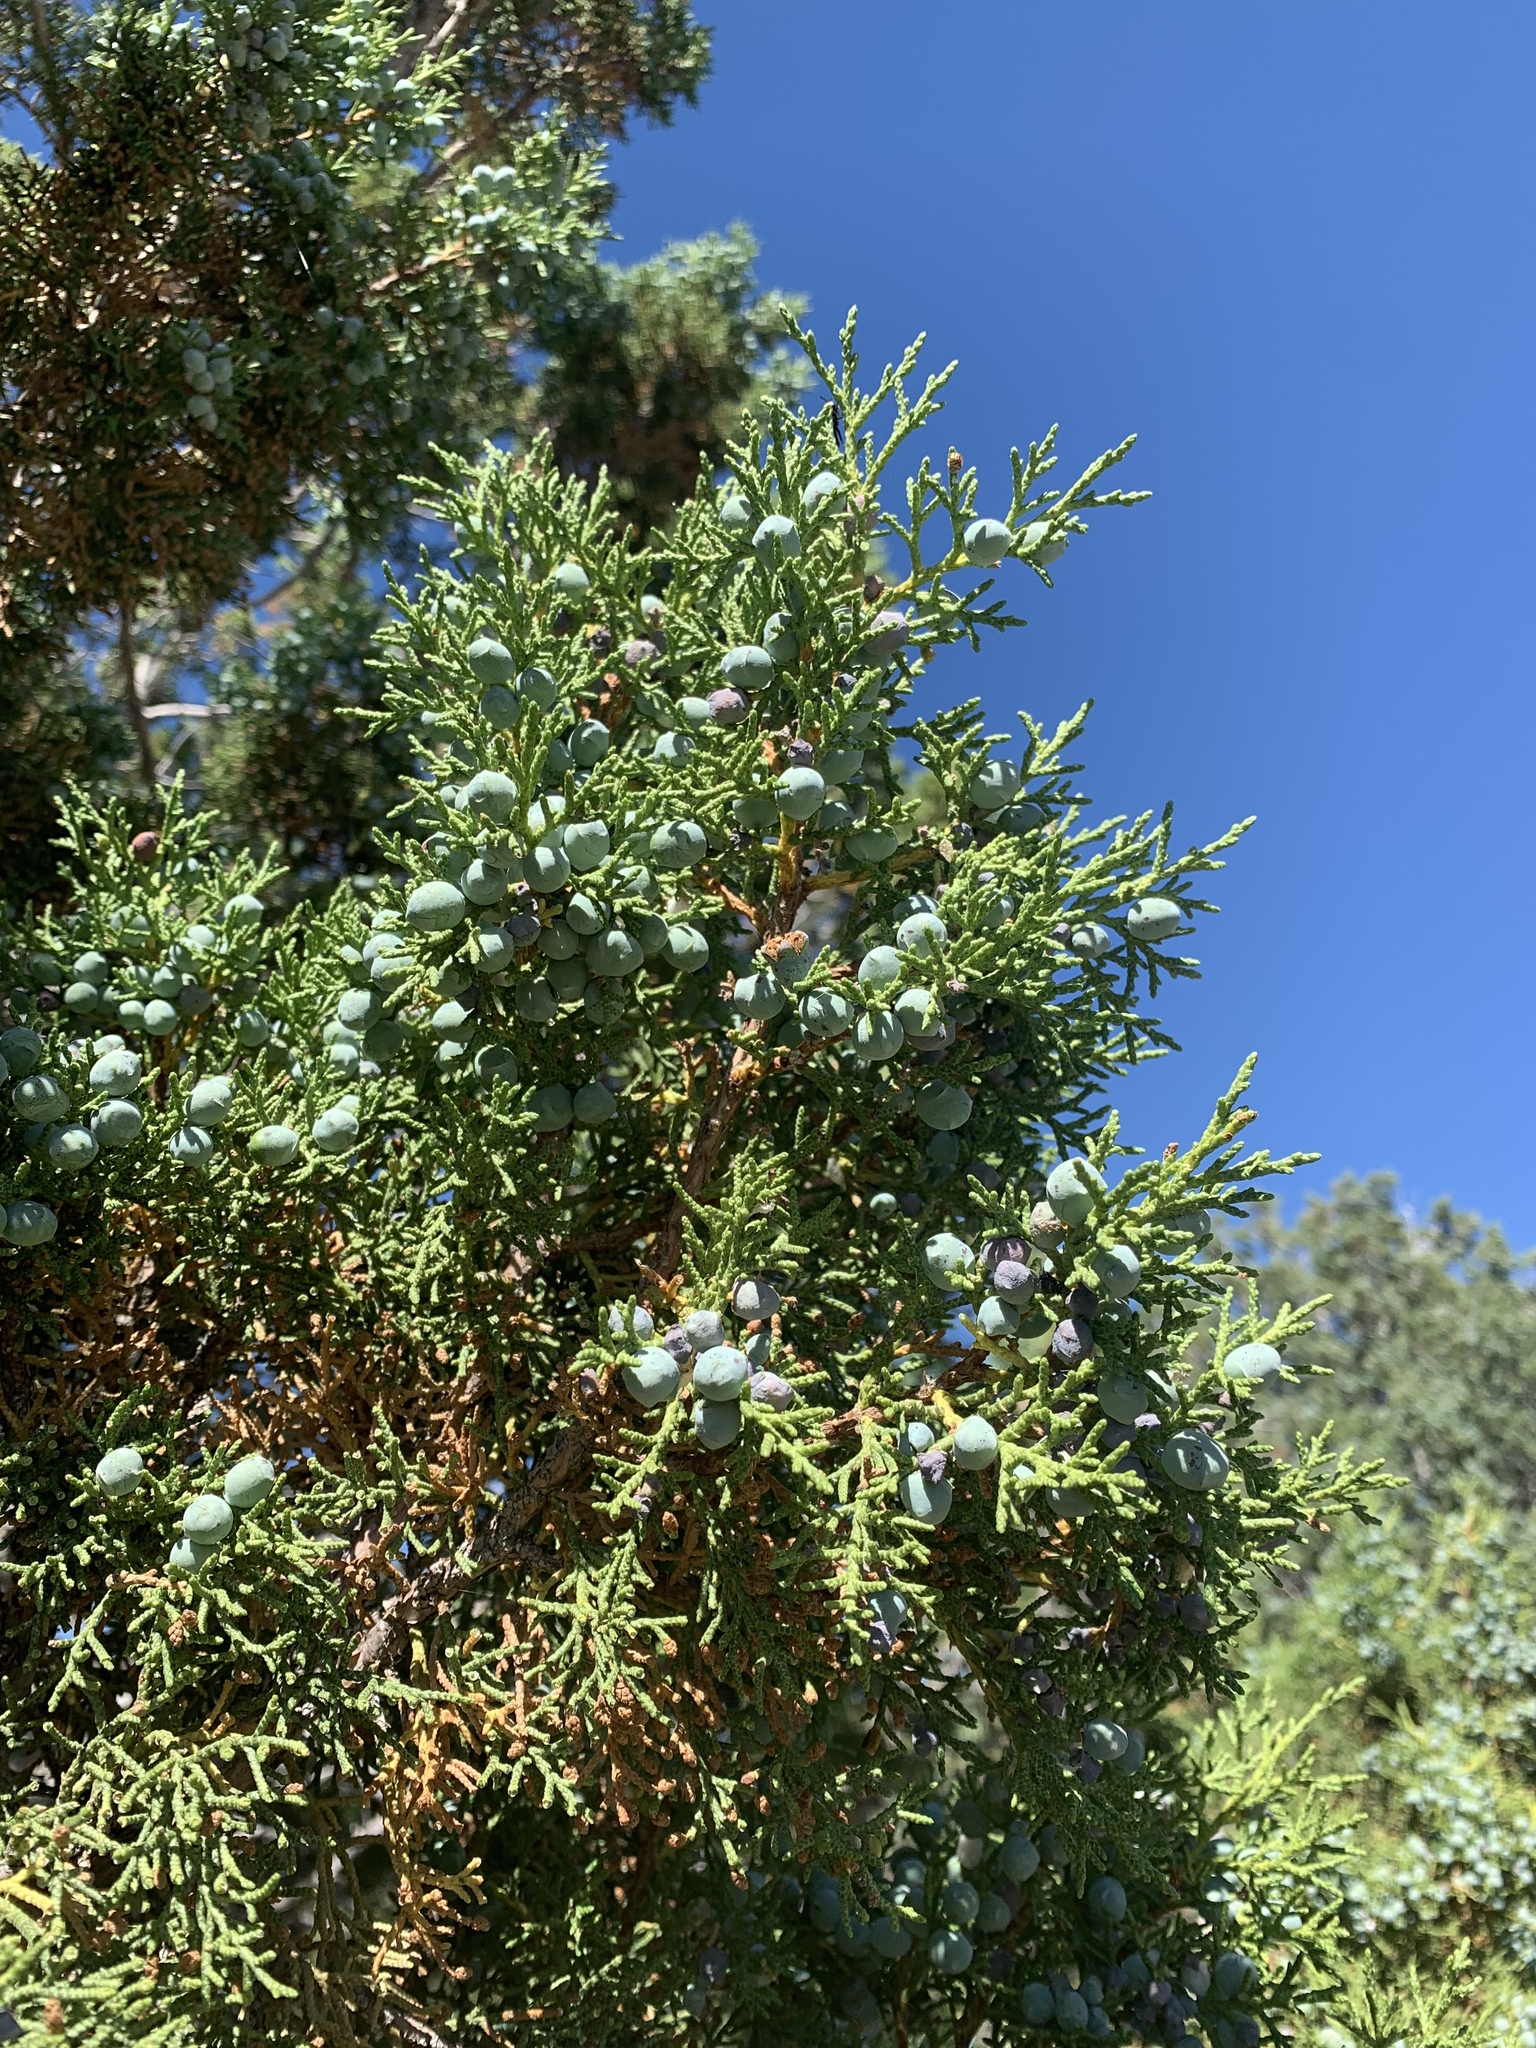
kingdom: Plantae
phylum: Tracheophyta
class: Pinopsida
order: Pinales
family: Cupressaceae
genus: Juniperus
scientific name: Juniperus osteosperma
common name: Utah juniper
